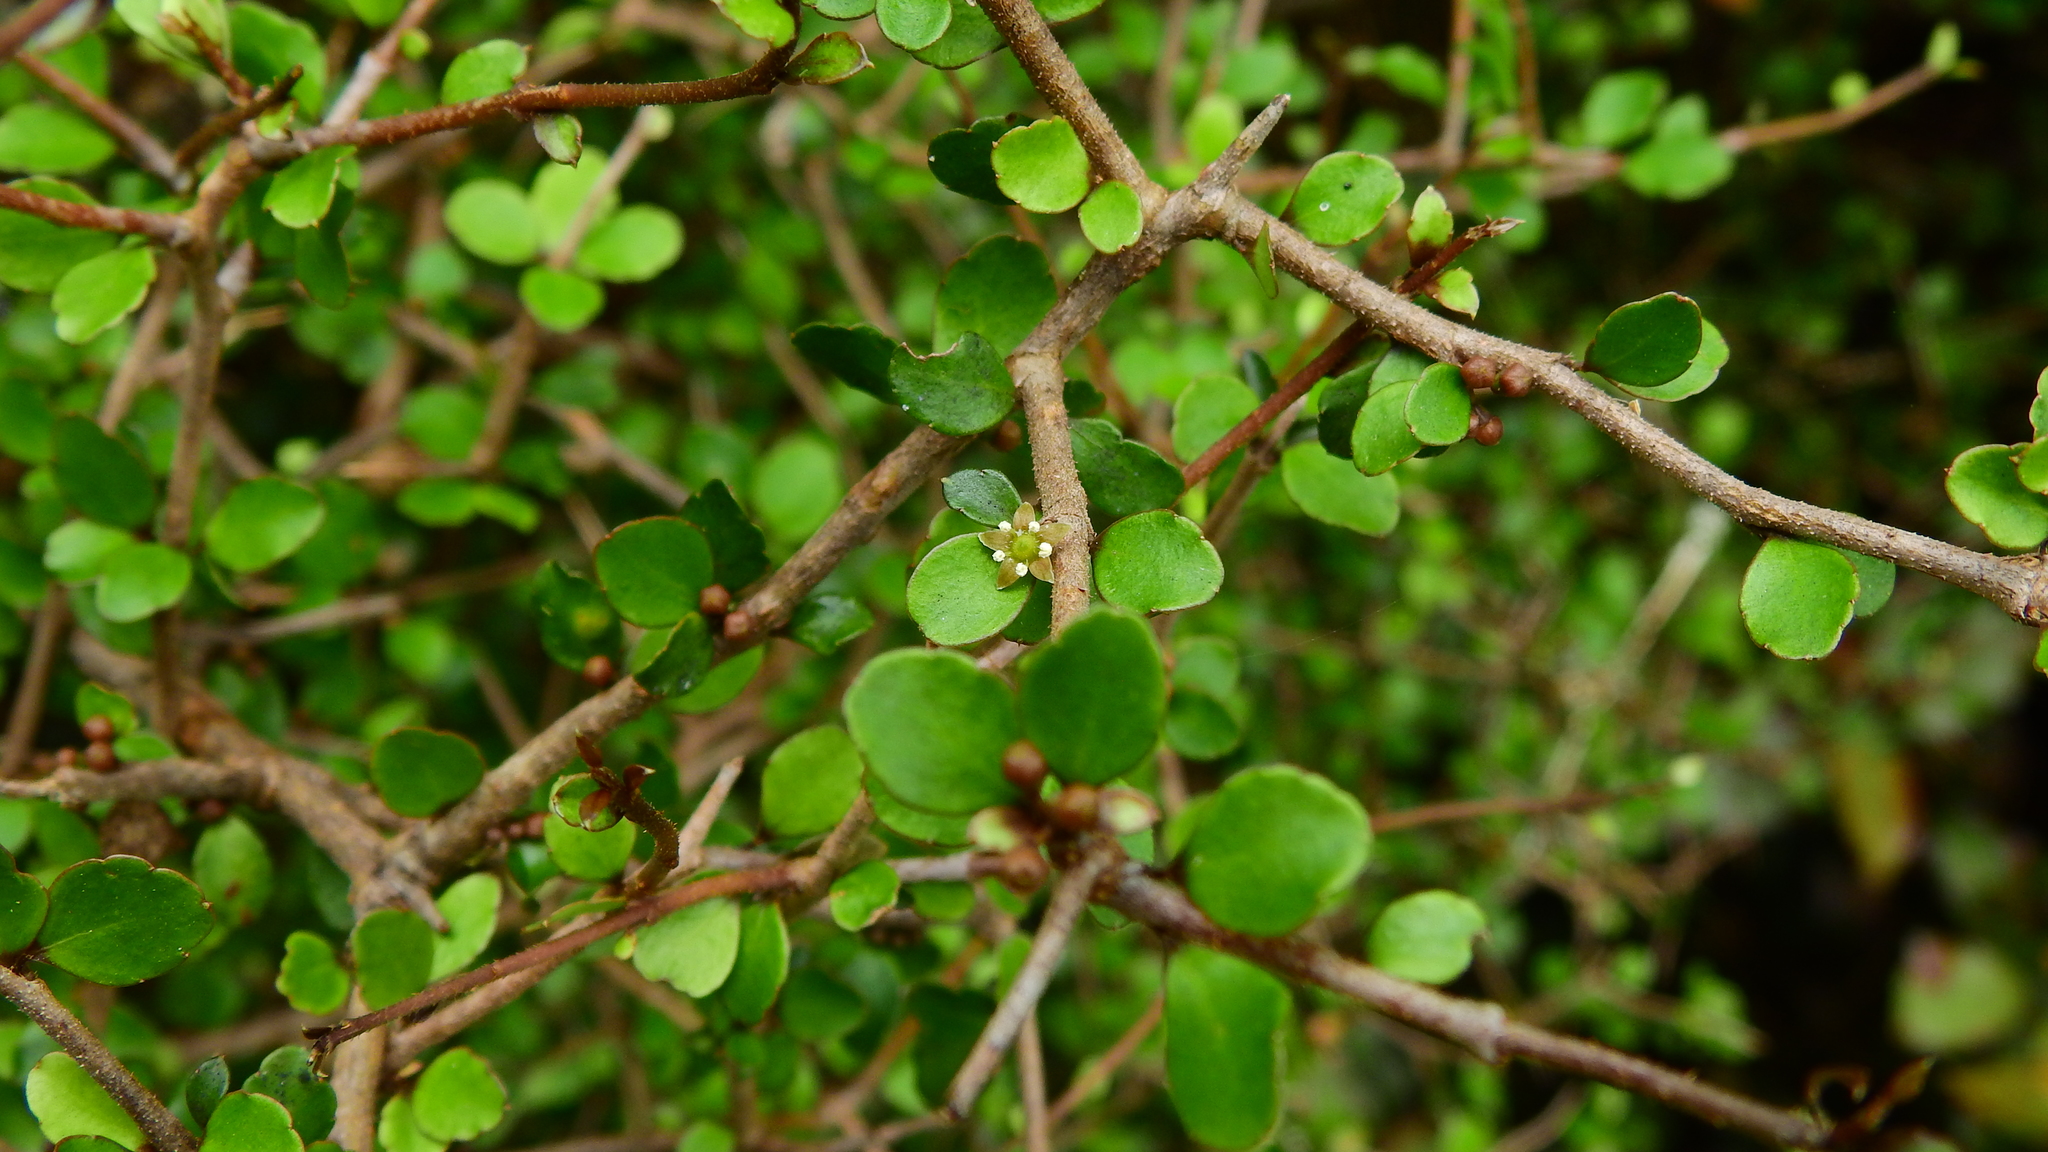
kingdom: Plantae
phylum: Tracheophyta
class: Magnoliopsida
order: Apiales
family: Araliaceae
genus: Raukaua
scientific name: Raukaua anomalus
